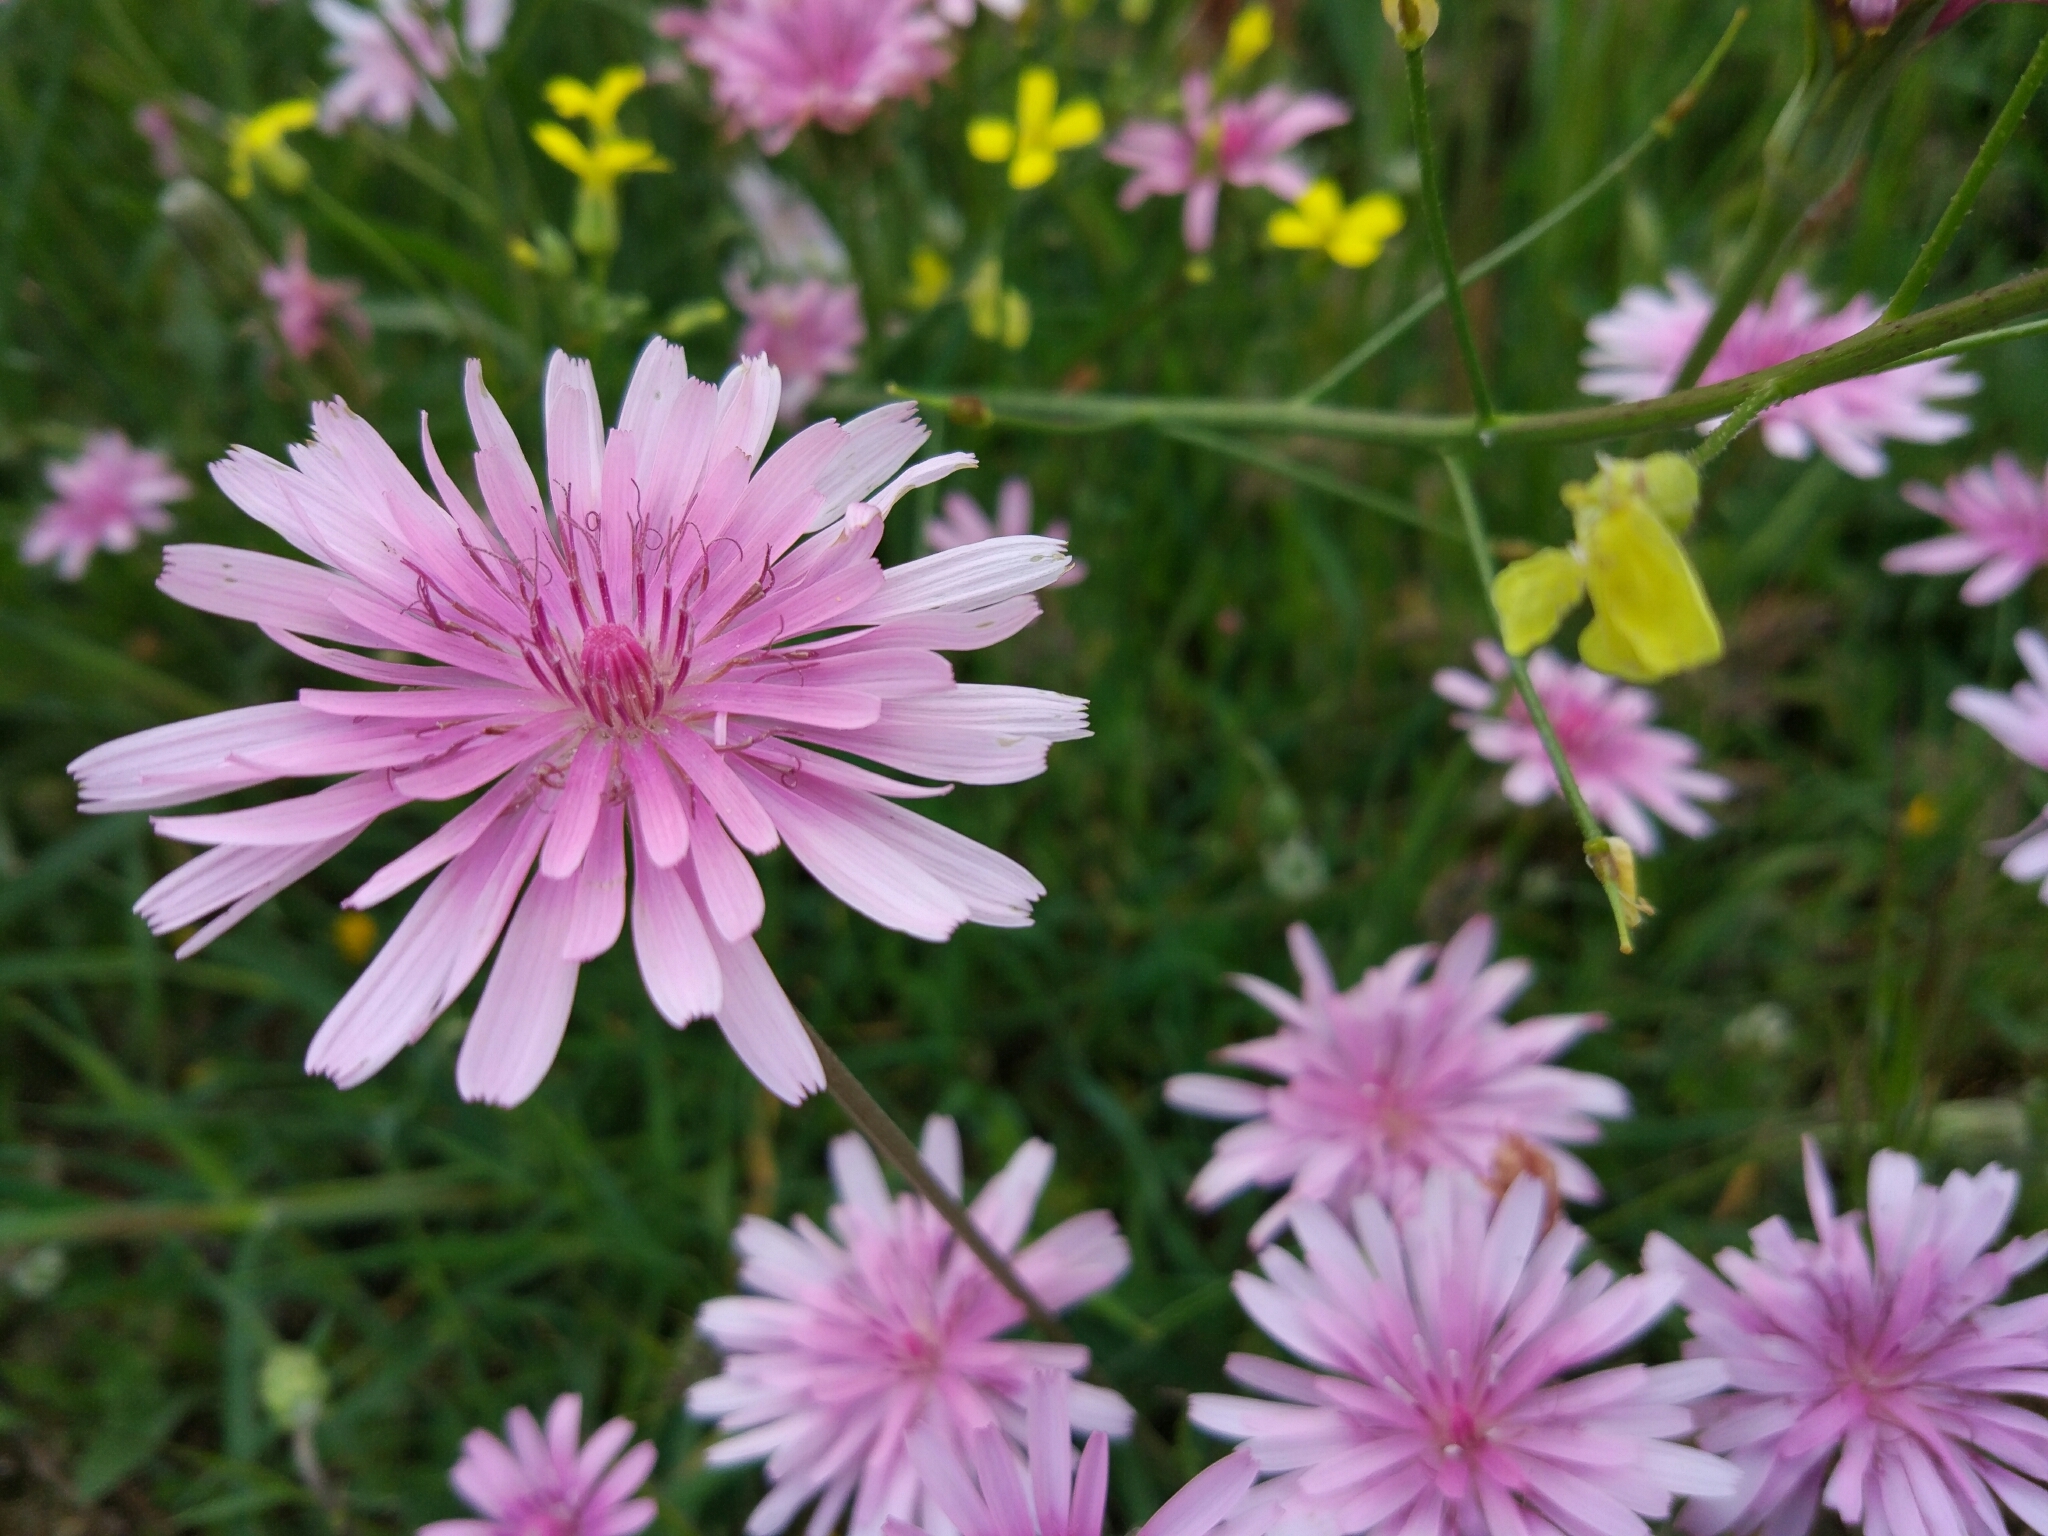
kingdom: Plantae
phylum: Tracheophyta
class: Magnoliopsida
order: Asterales
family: Asteraceae
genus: Crepis
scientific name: Crepis rubra
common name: Pink hawk's-beard
